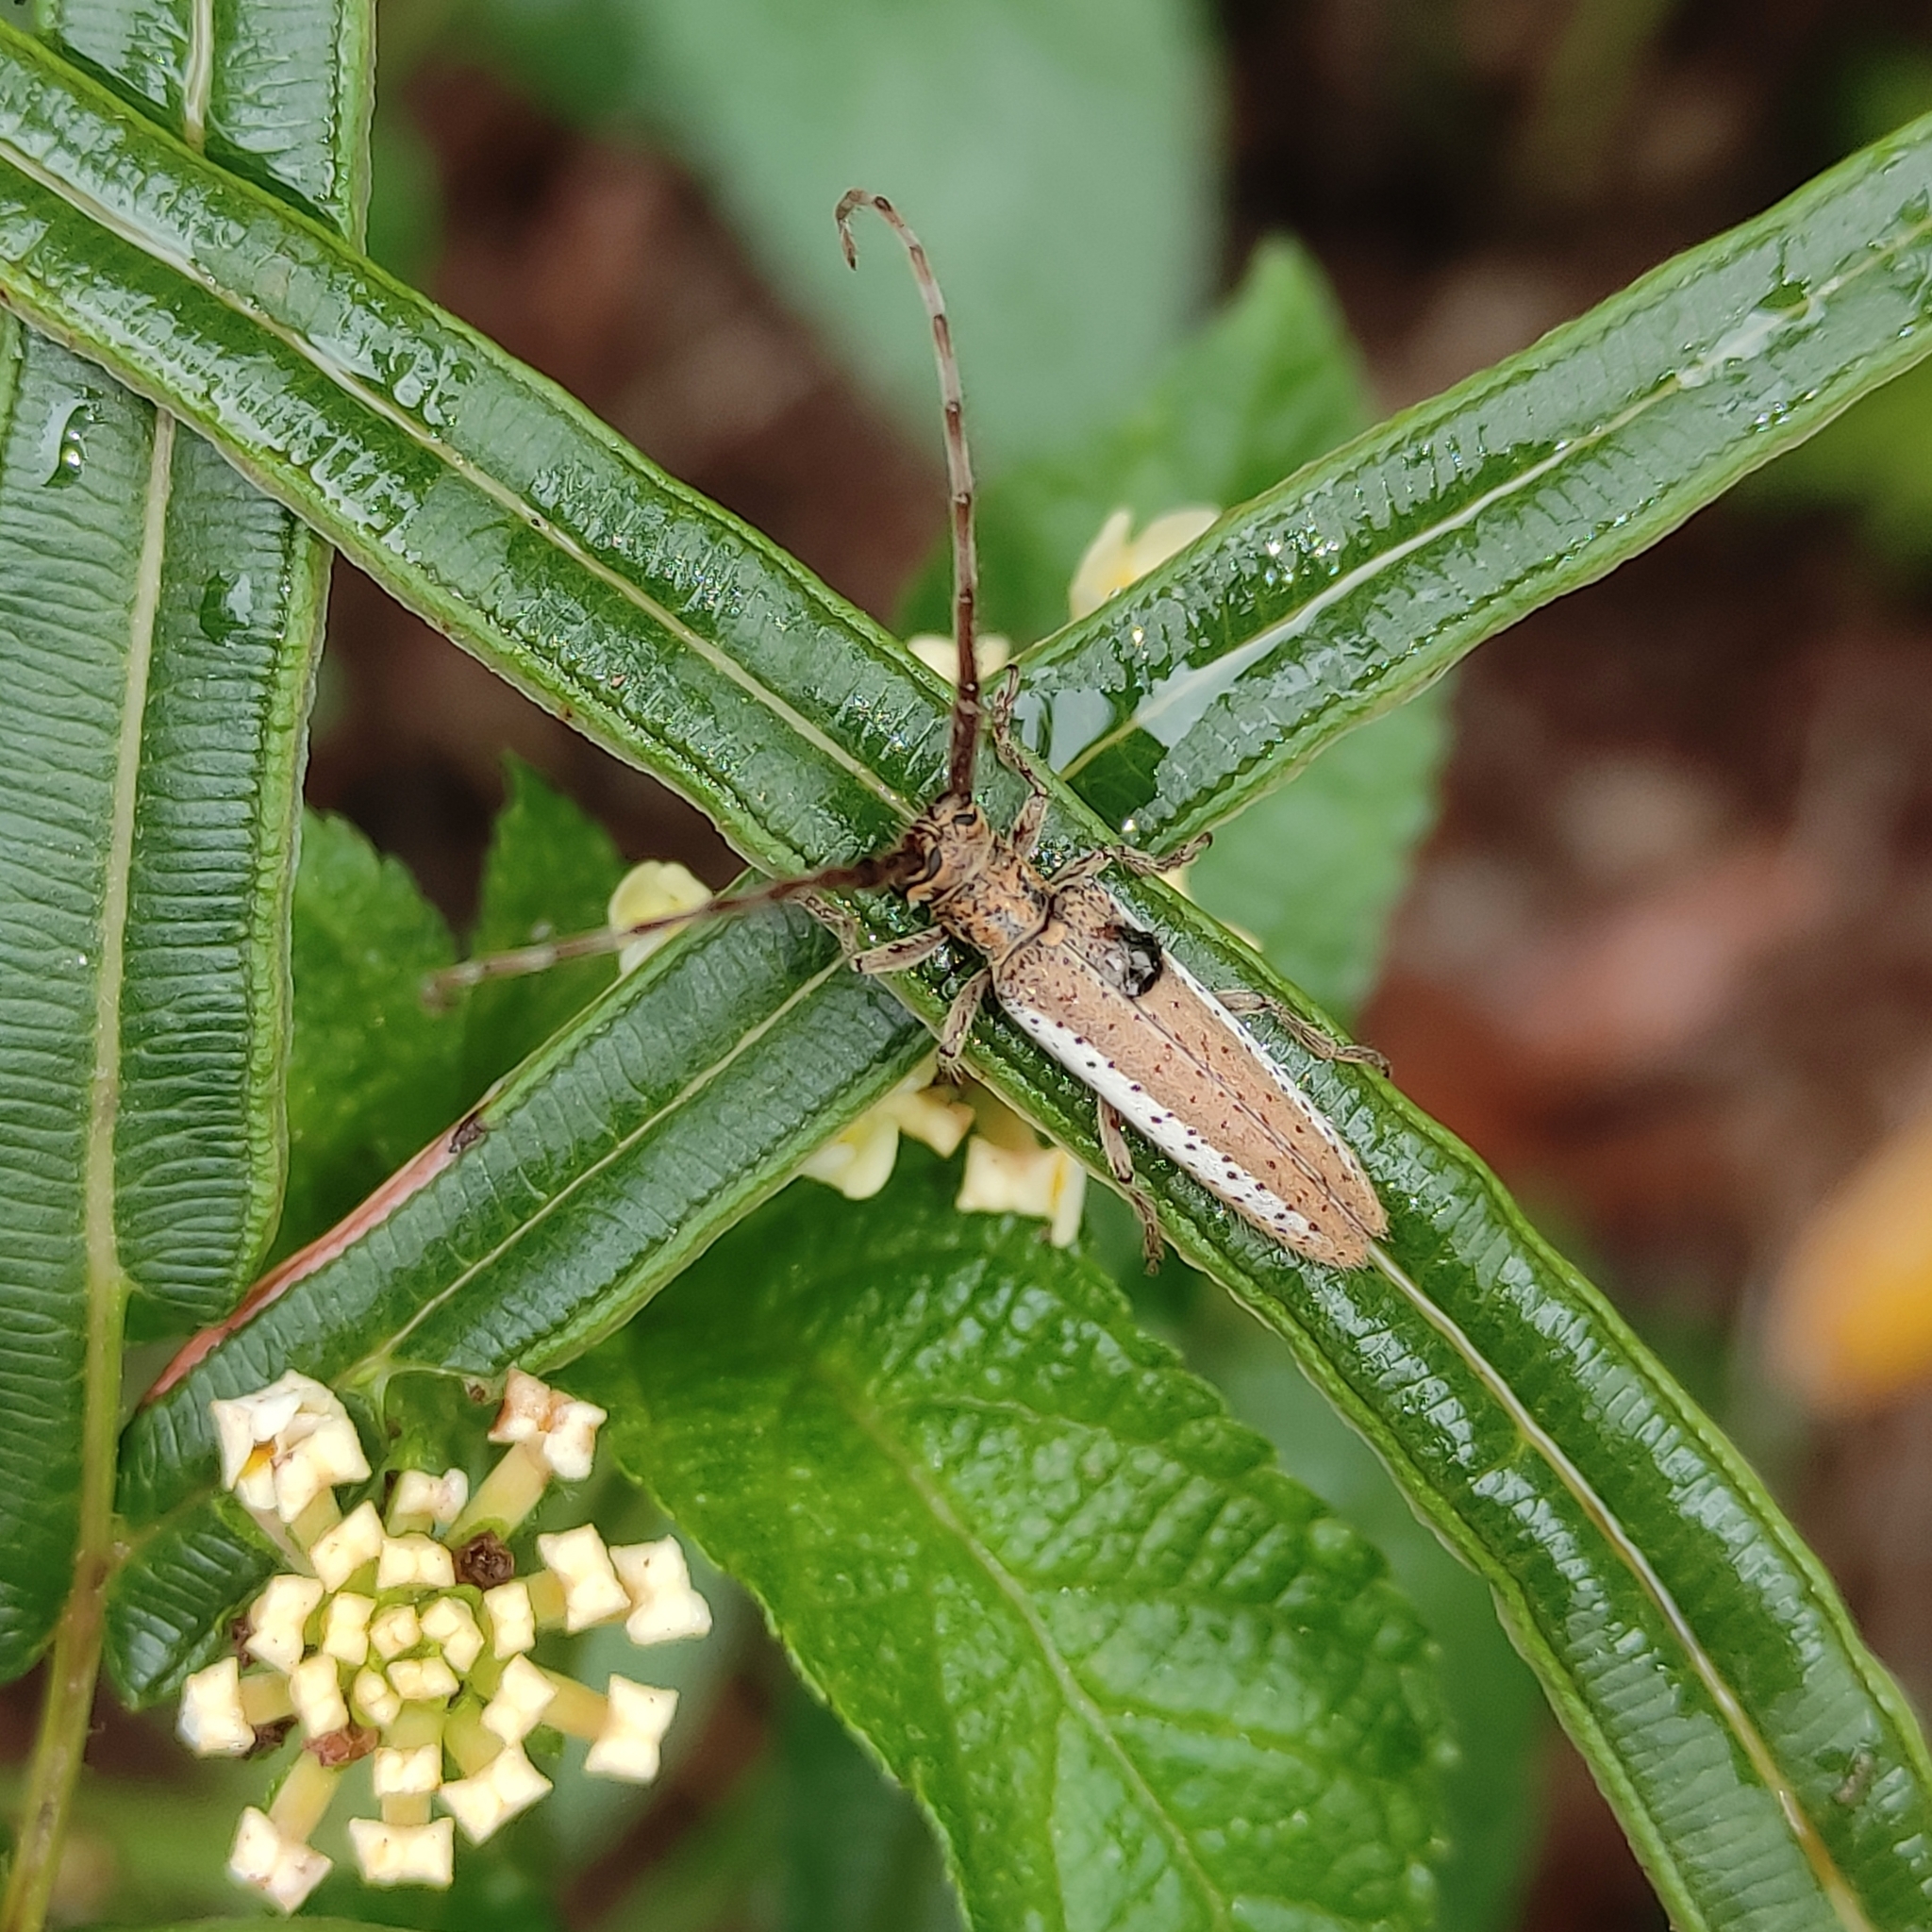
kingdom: Animalia
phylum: Arthropoda
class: Insecta
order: Coleoptera
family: Cerambycidae
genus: Holoaerenica
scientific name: Holoaerenica multipunctata
